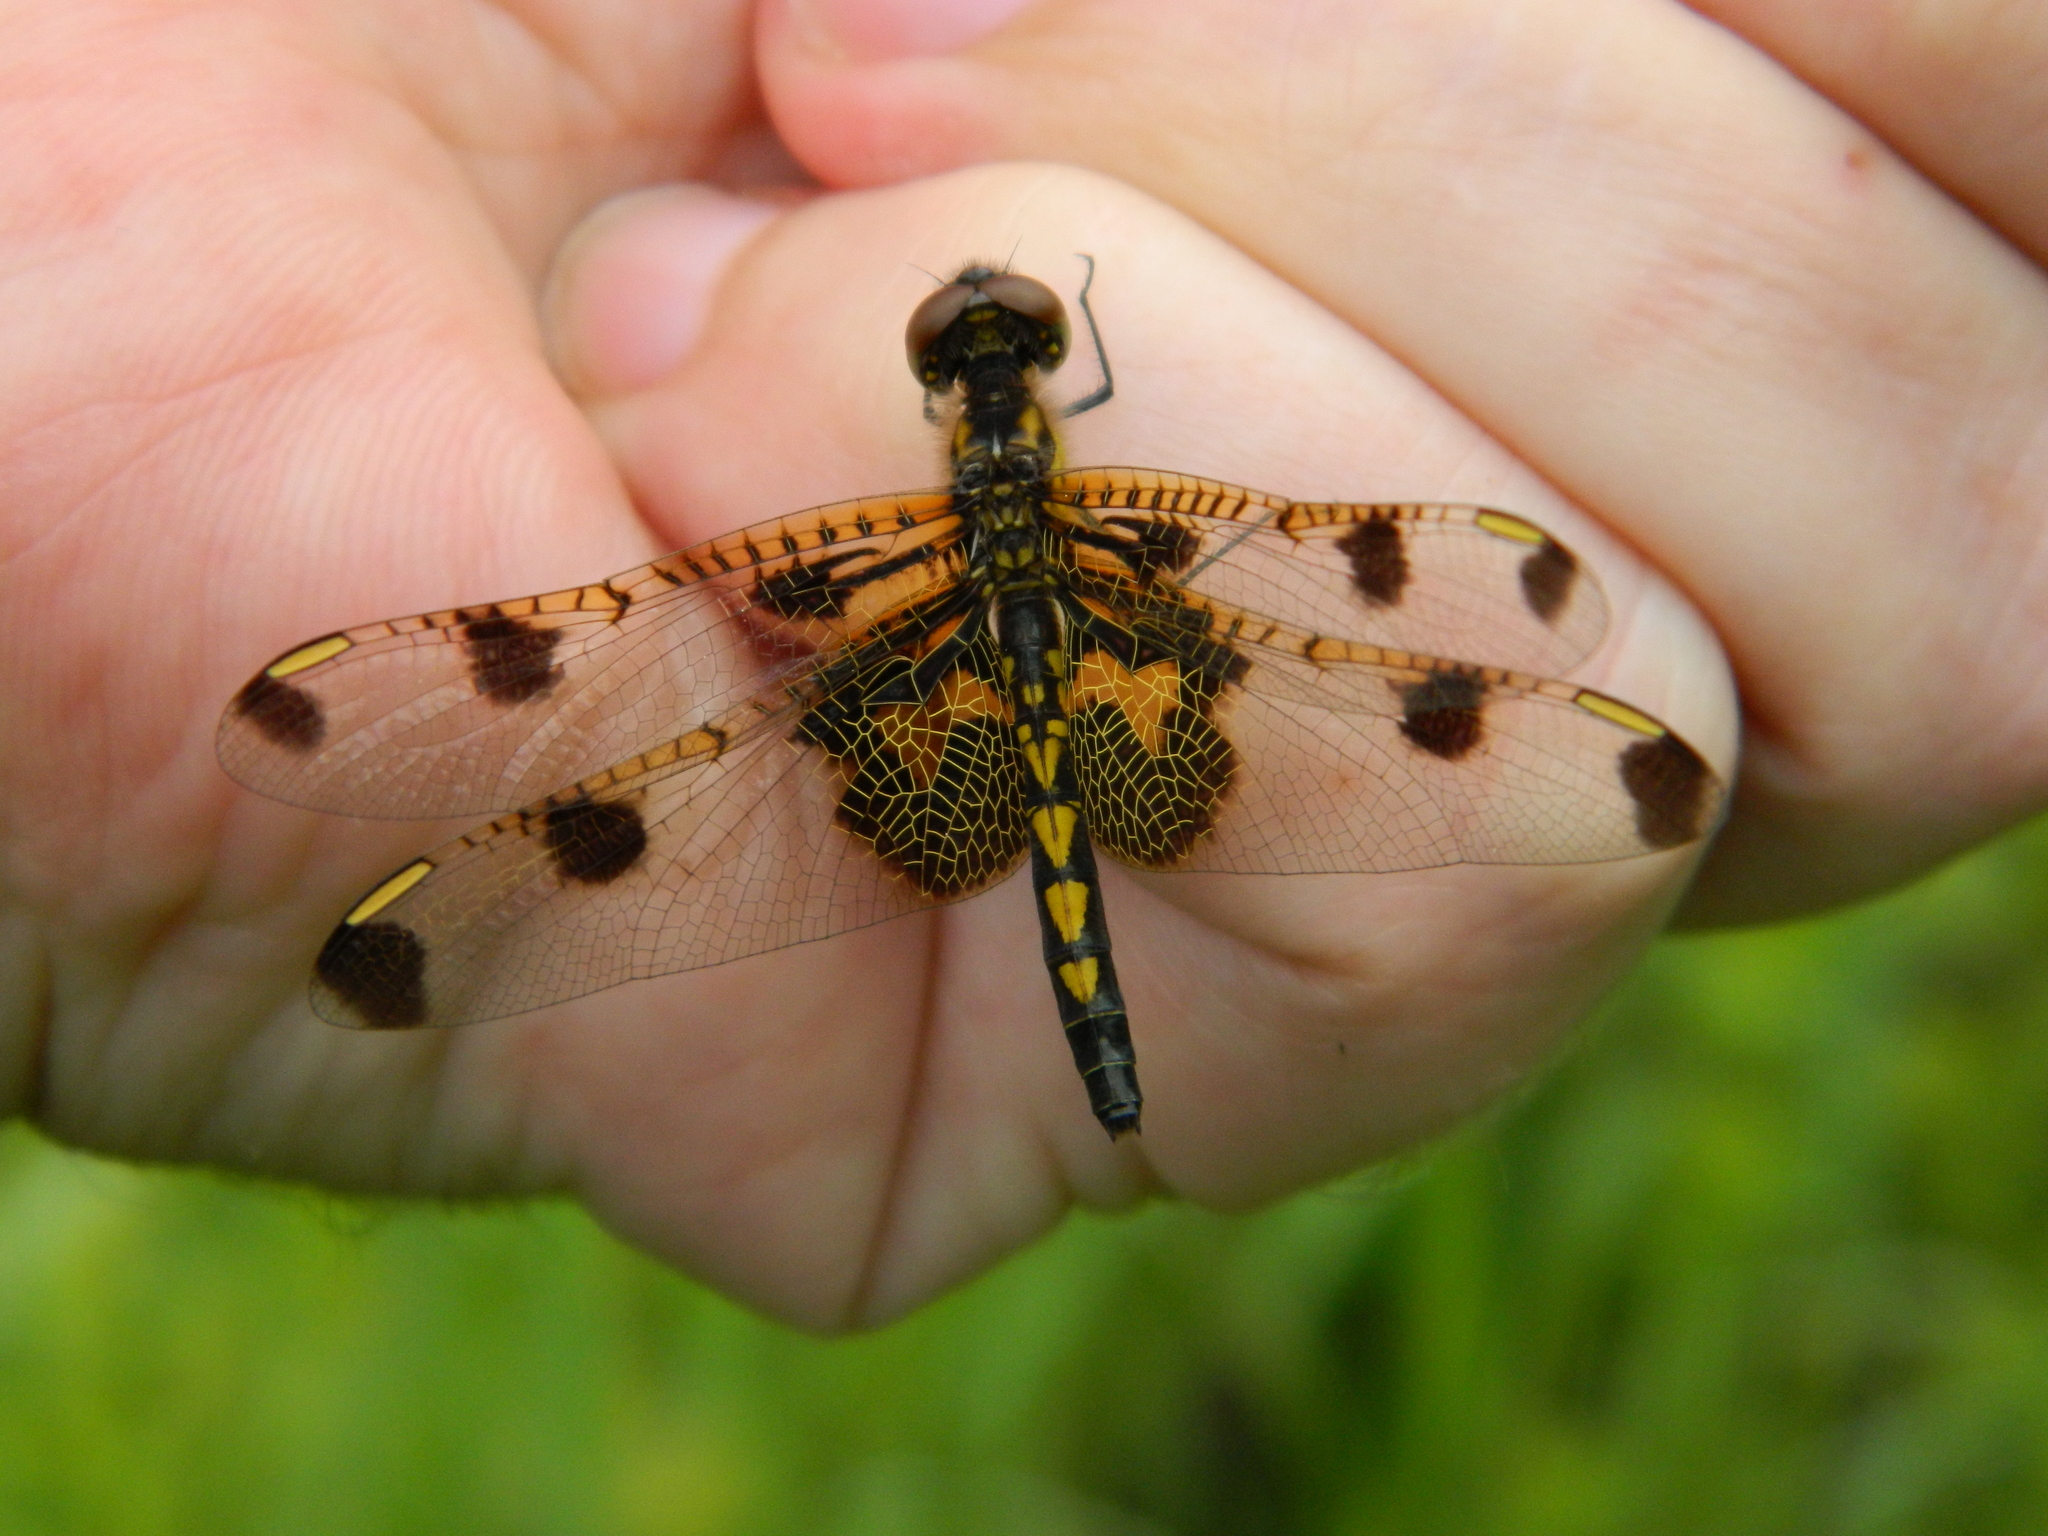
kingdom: Animalia
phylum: Arthropoda
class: Insecta
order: Odonata
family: Libellulidae
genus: Celithemis
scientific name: Celithemis elisa
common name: Calico pennant
